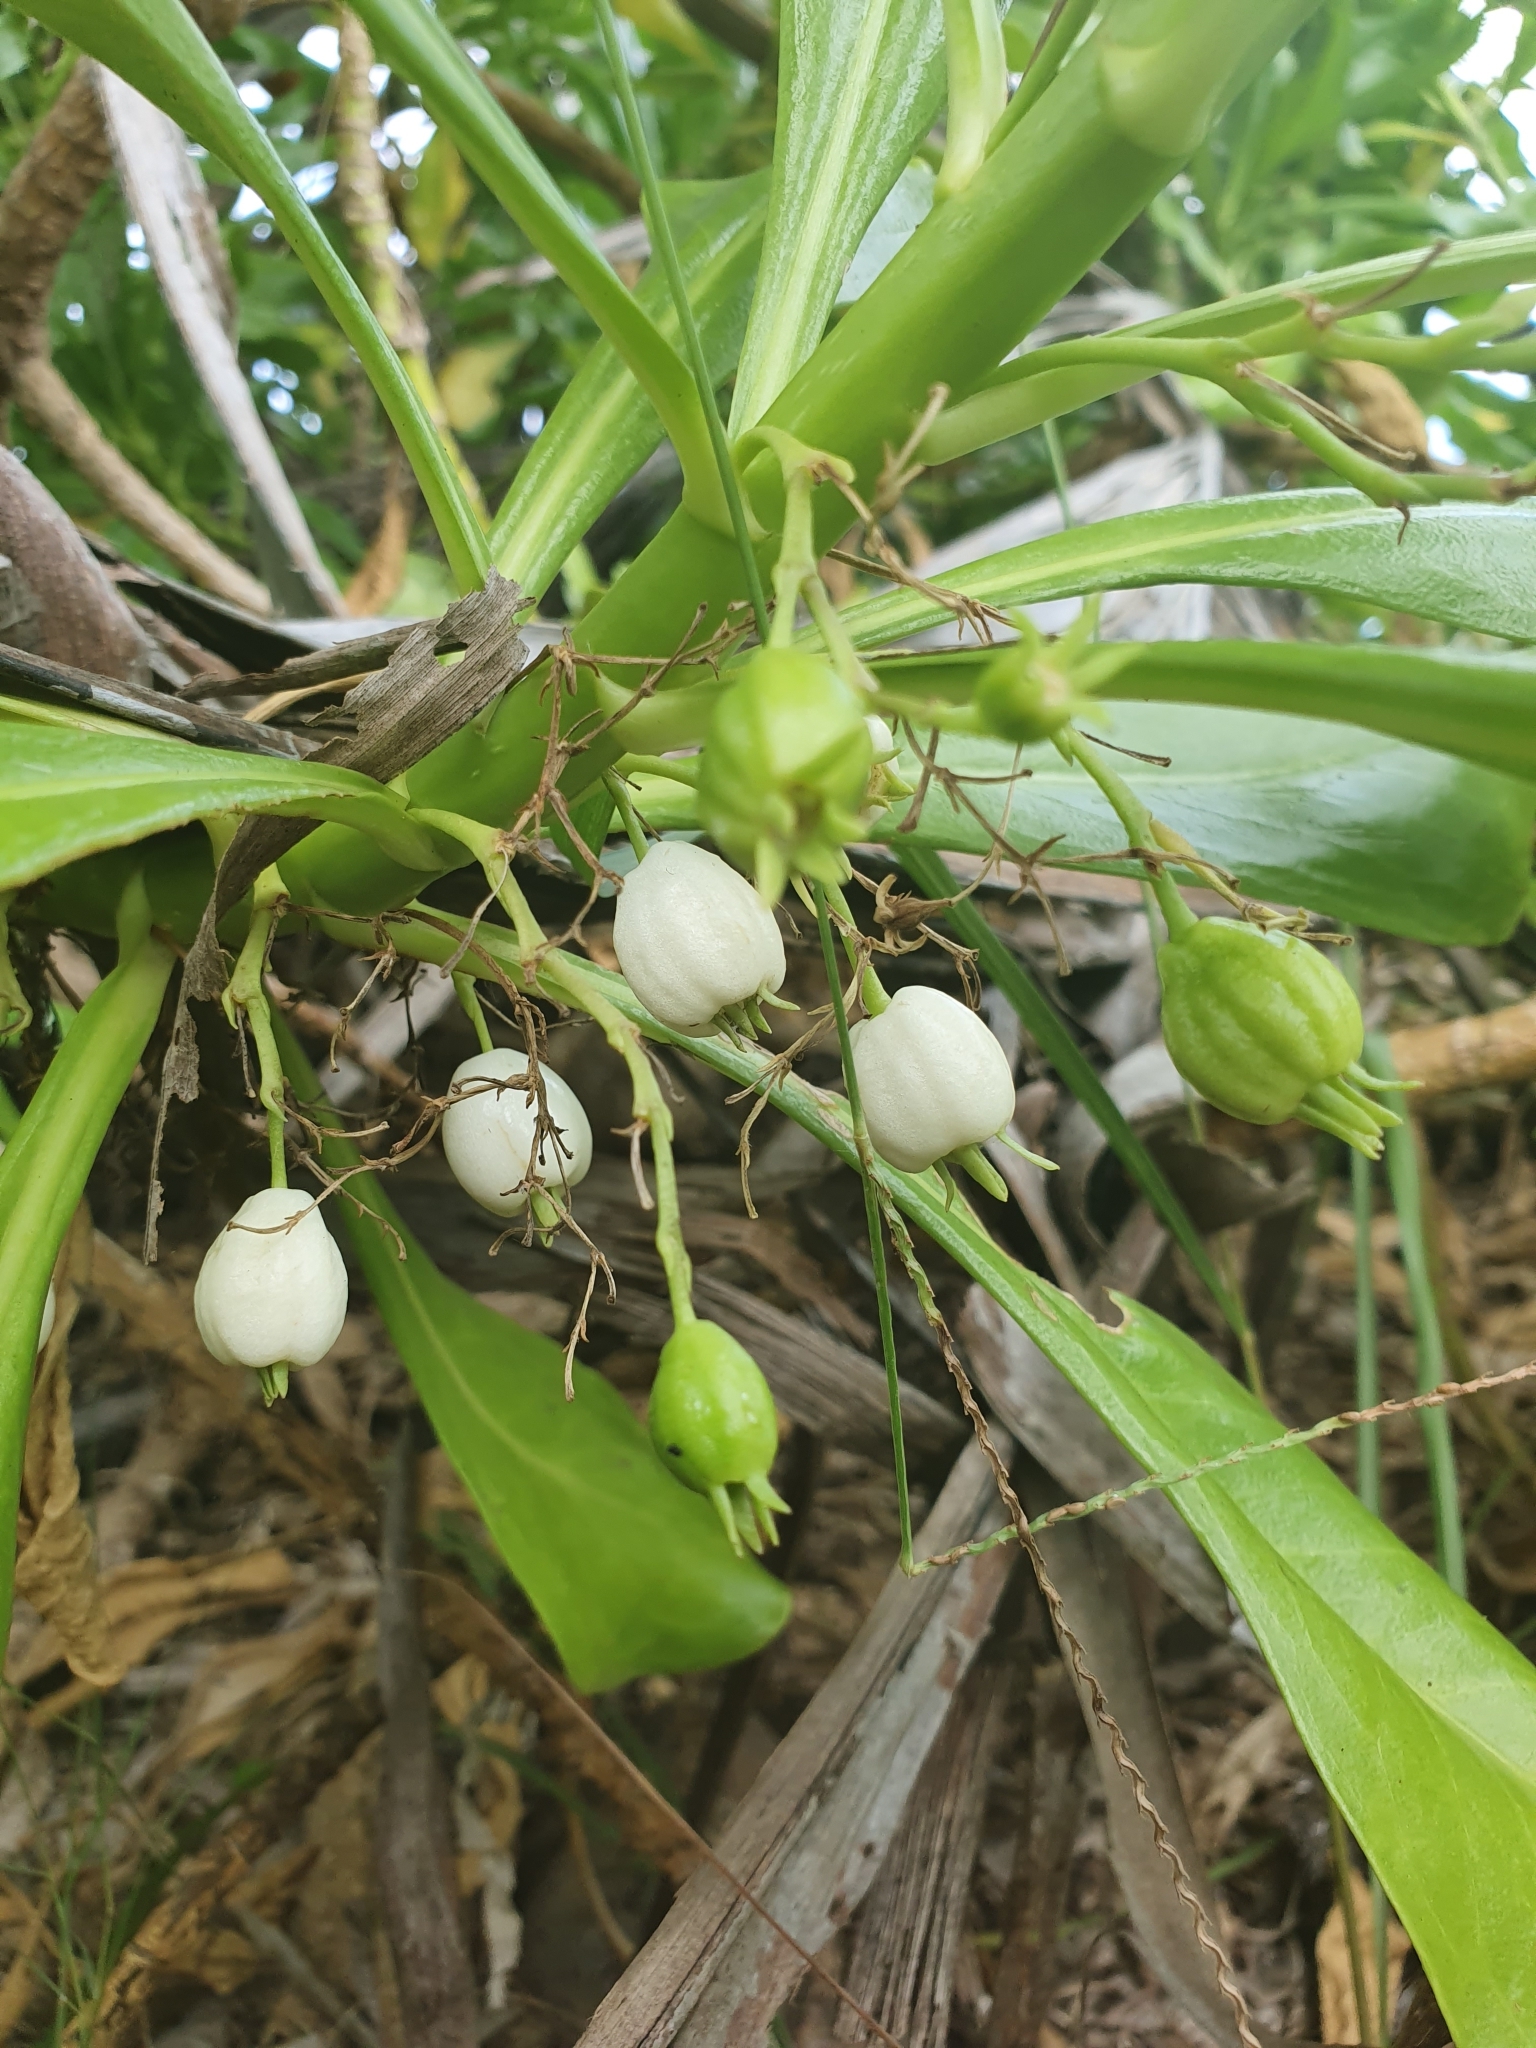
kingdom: Plantae
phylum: Tracheophyta
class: Magnoliopsida
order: Asterales
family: Goodeniaceae
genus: Scaevola
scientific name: Scaevola taccada
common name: Sea lettucetree
